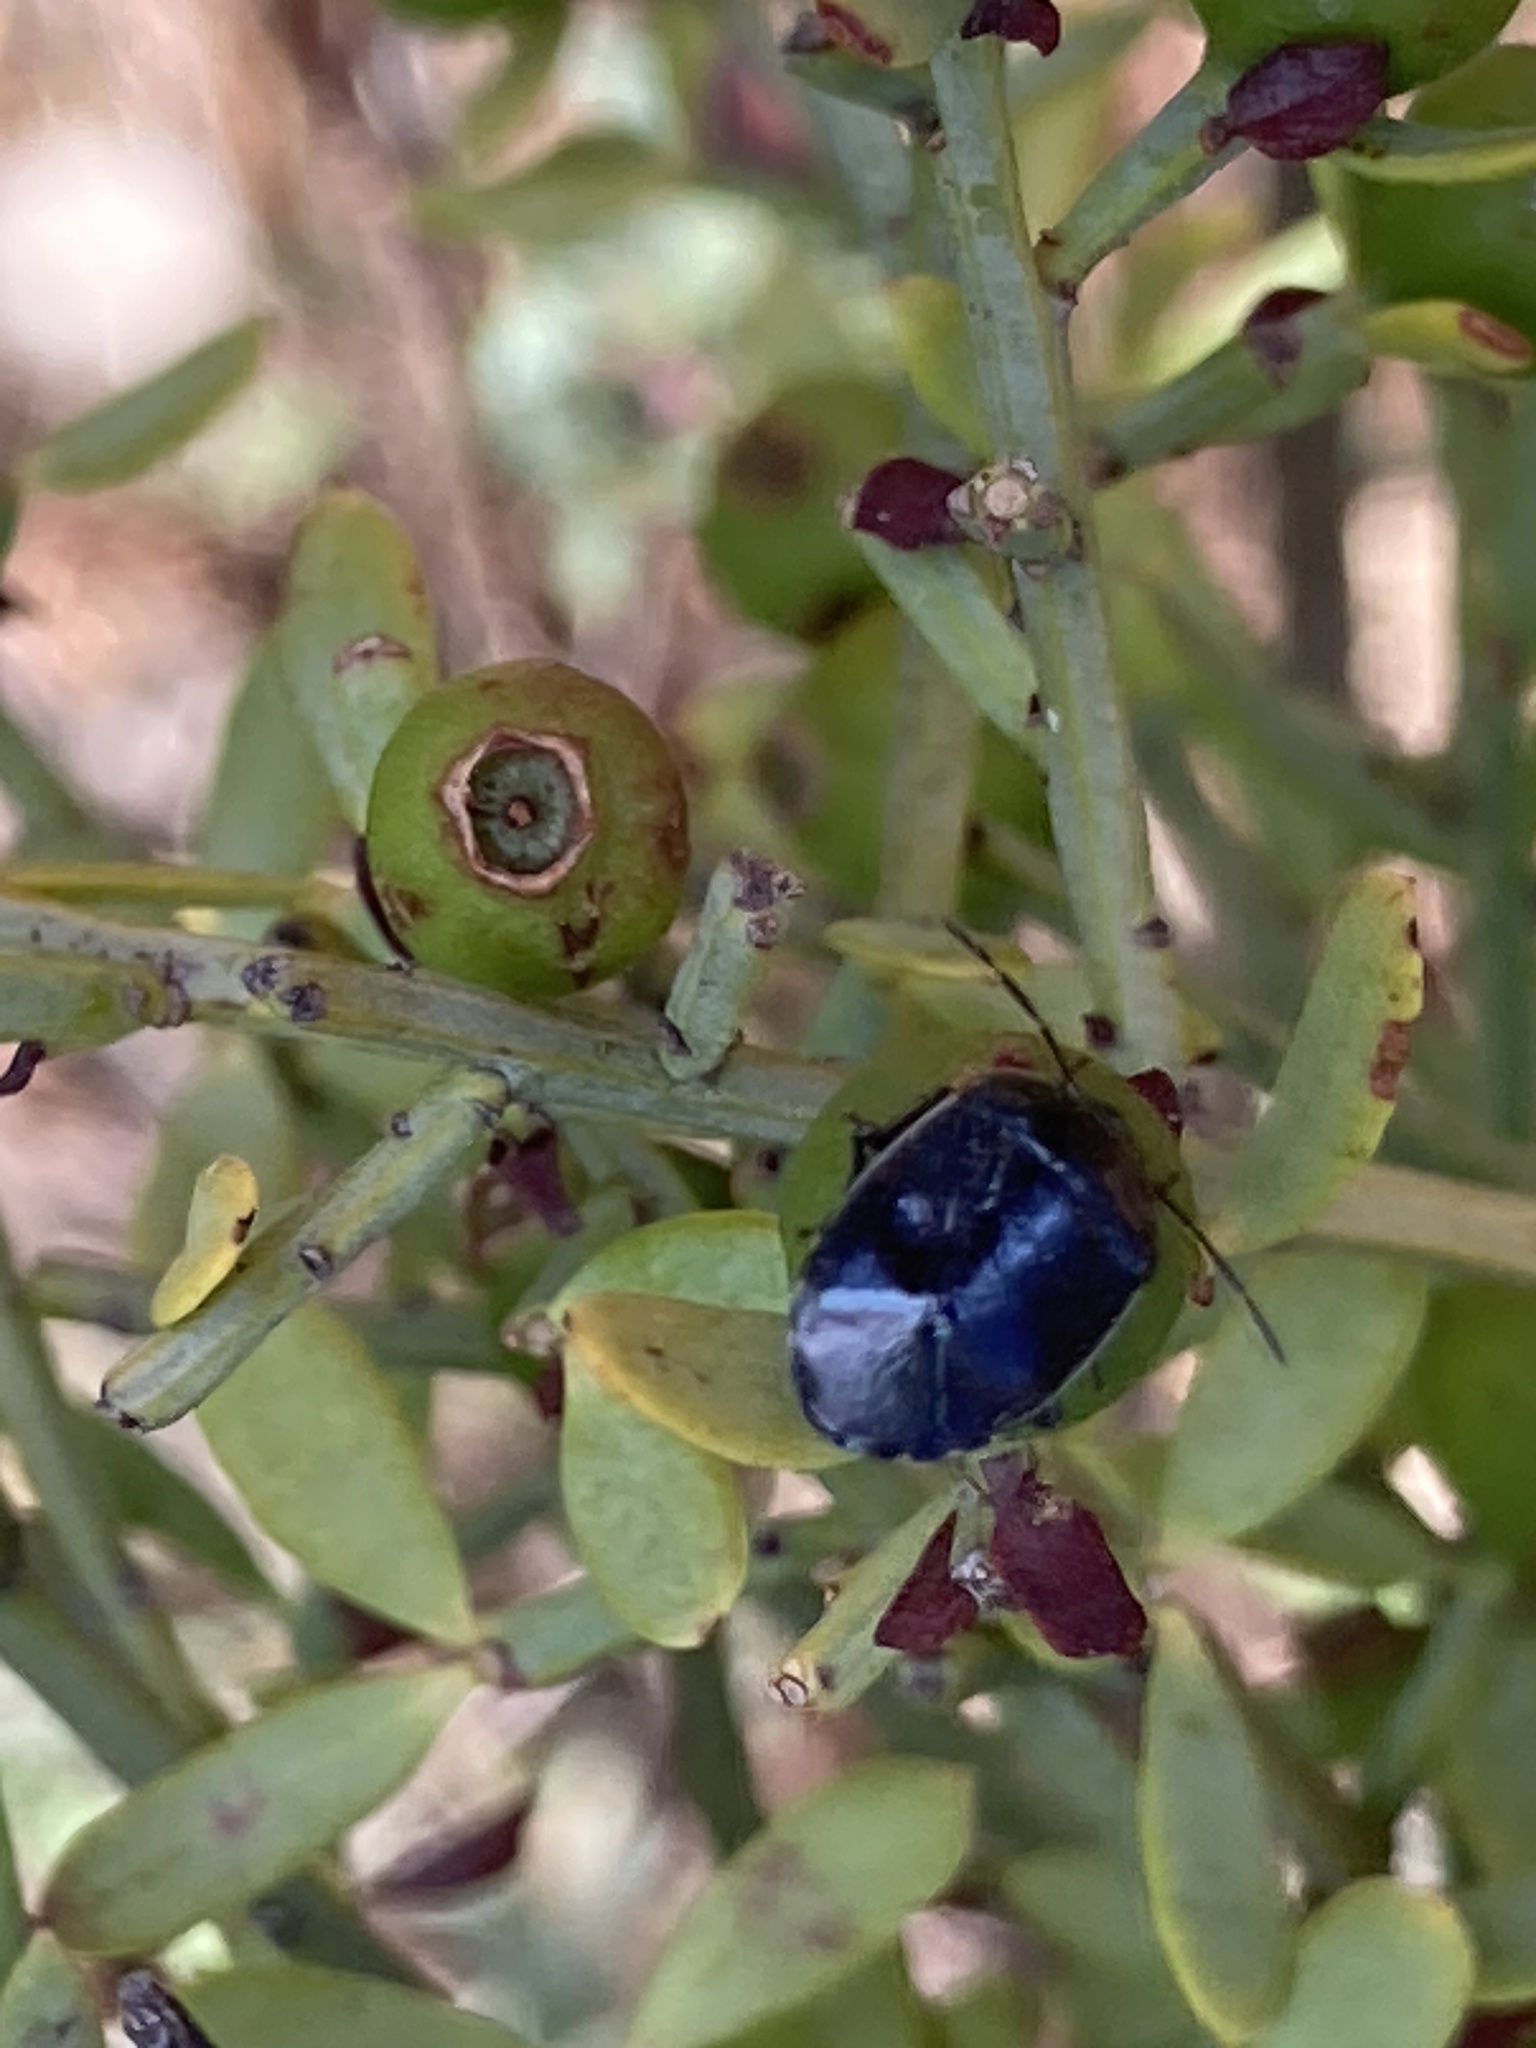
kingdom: Animalia
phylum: Arthropoda
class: Insecta
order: Hemiptera
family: Cydnidae
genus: Canthophorus
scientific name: Canthophorus melanopterus
